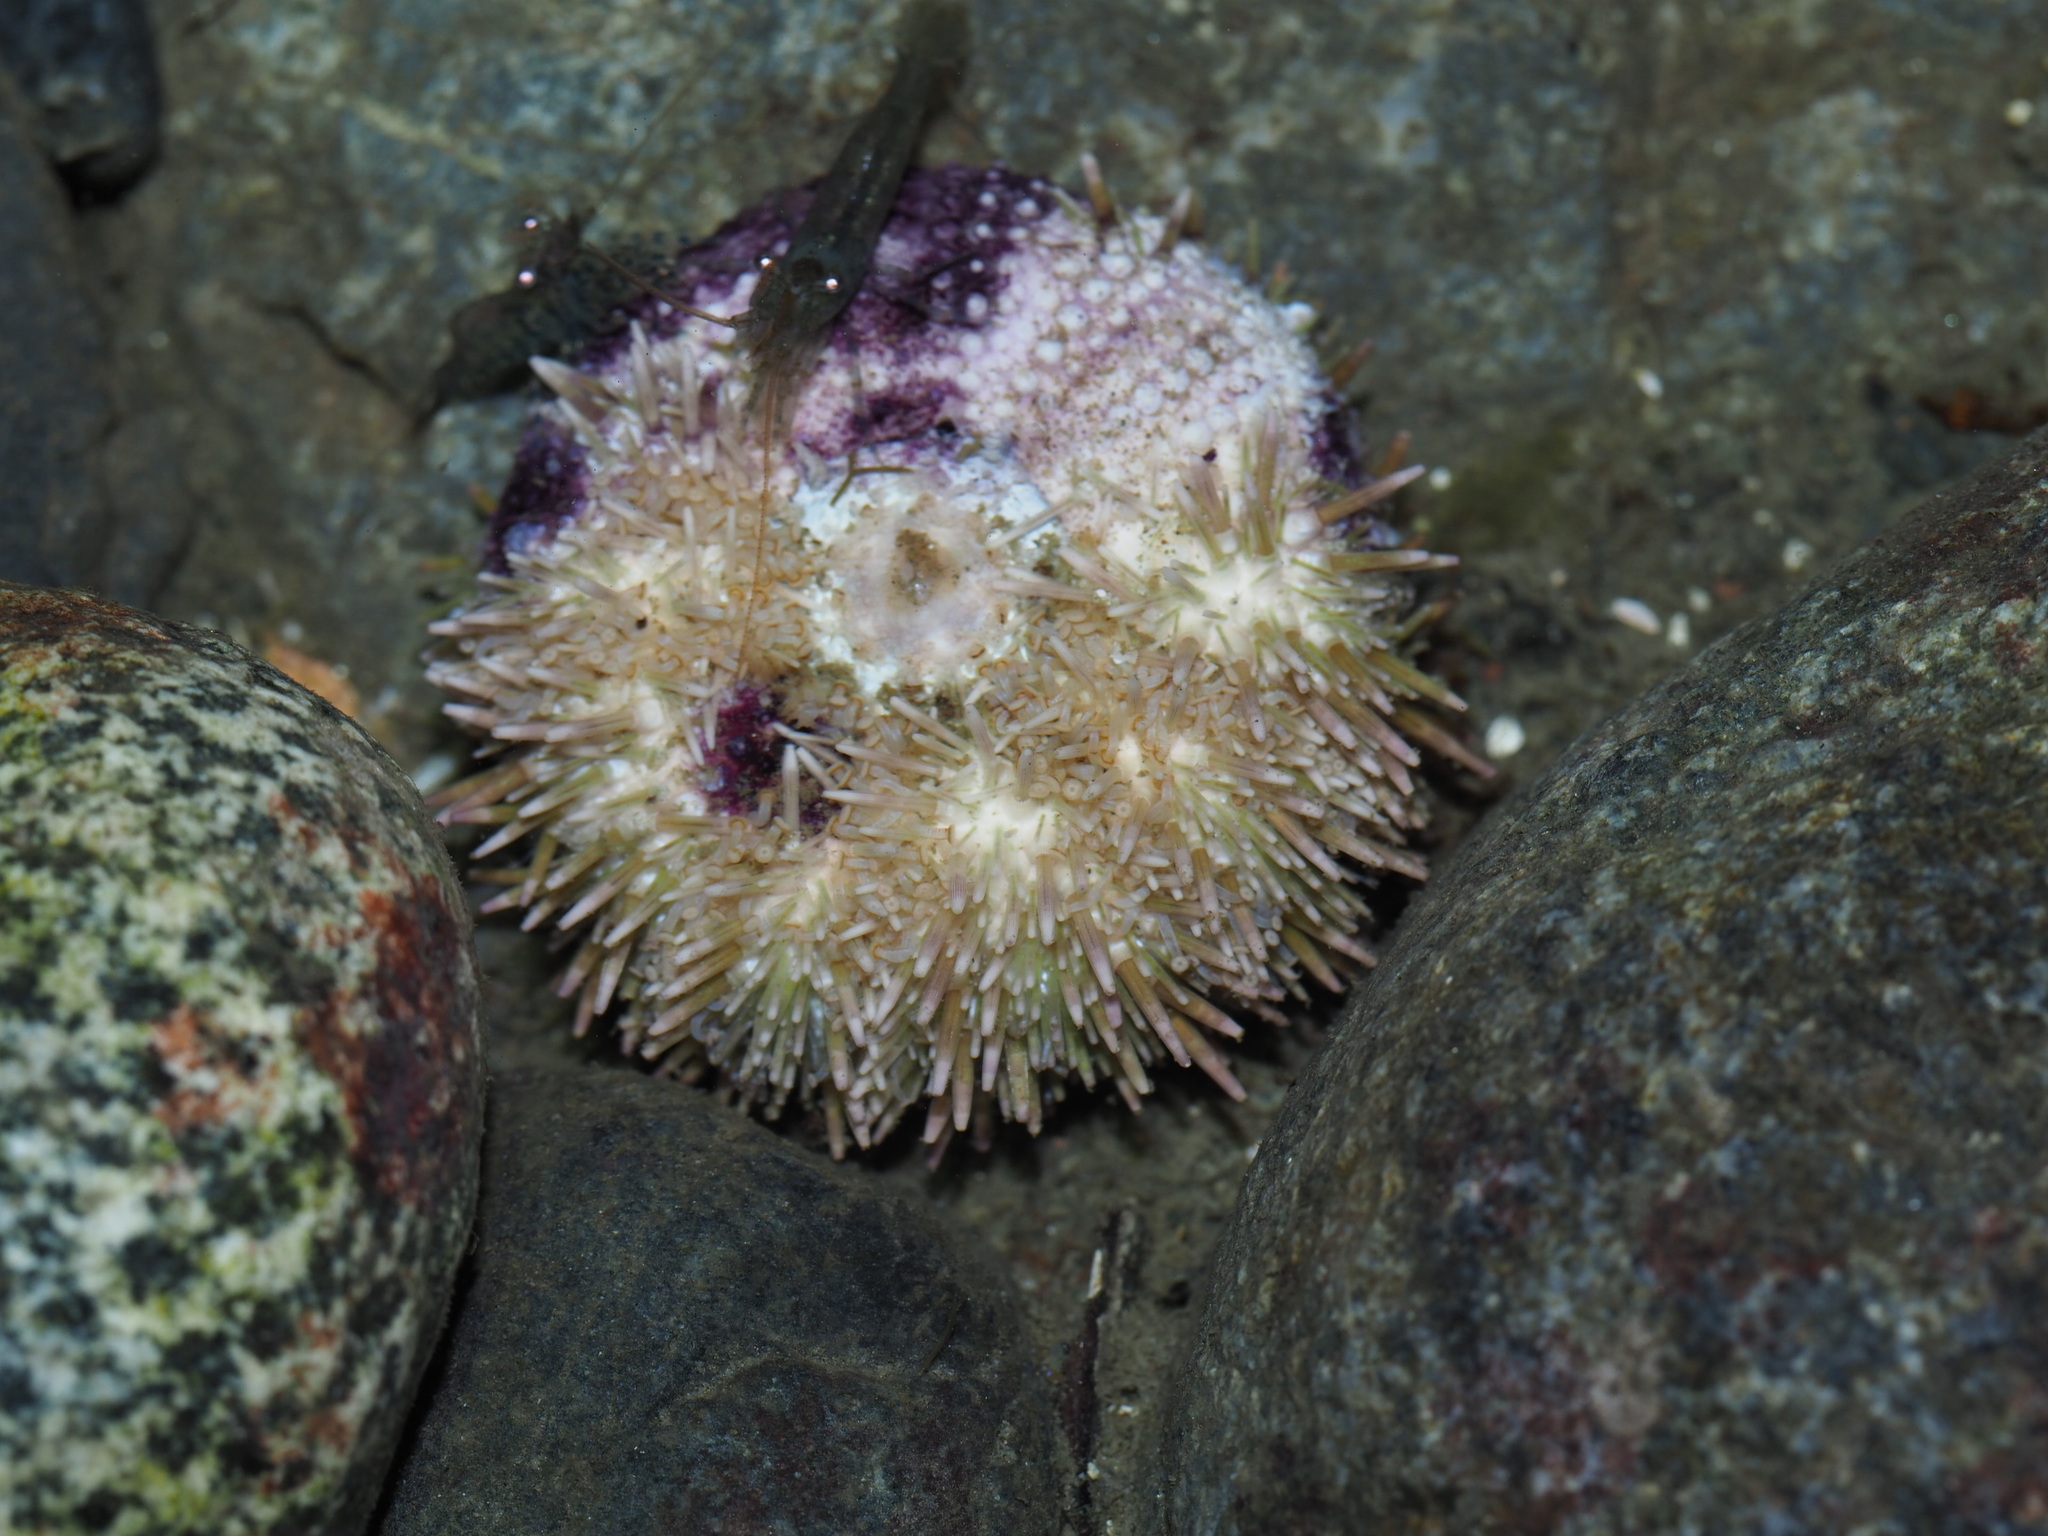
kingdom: Animalia
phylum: Echinodermata
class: Echinoidea
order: Camarodonta
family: Strongylocentrotidae
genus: Strongylocentrotus
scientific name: Strongylocentrotus droebachiensis
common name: Northern sea urchin
